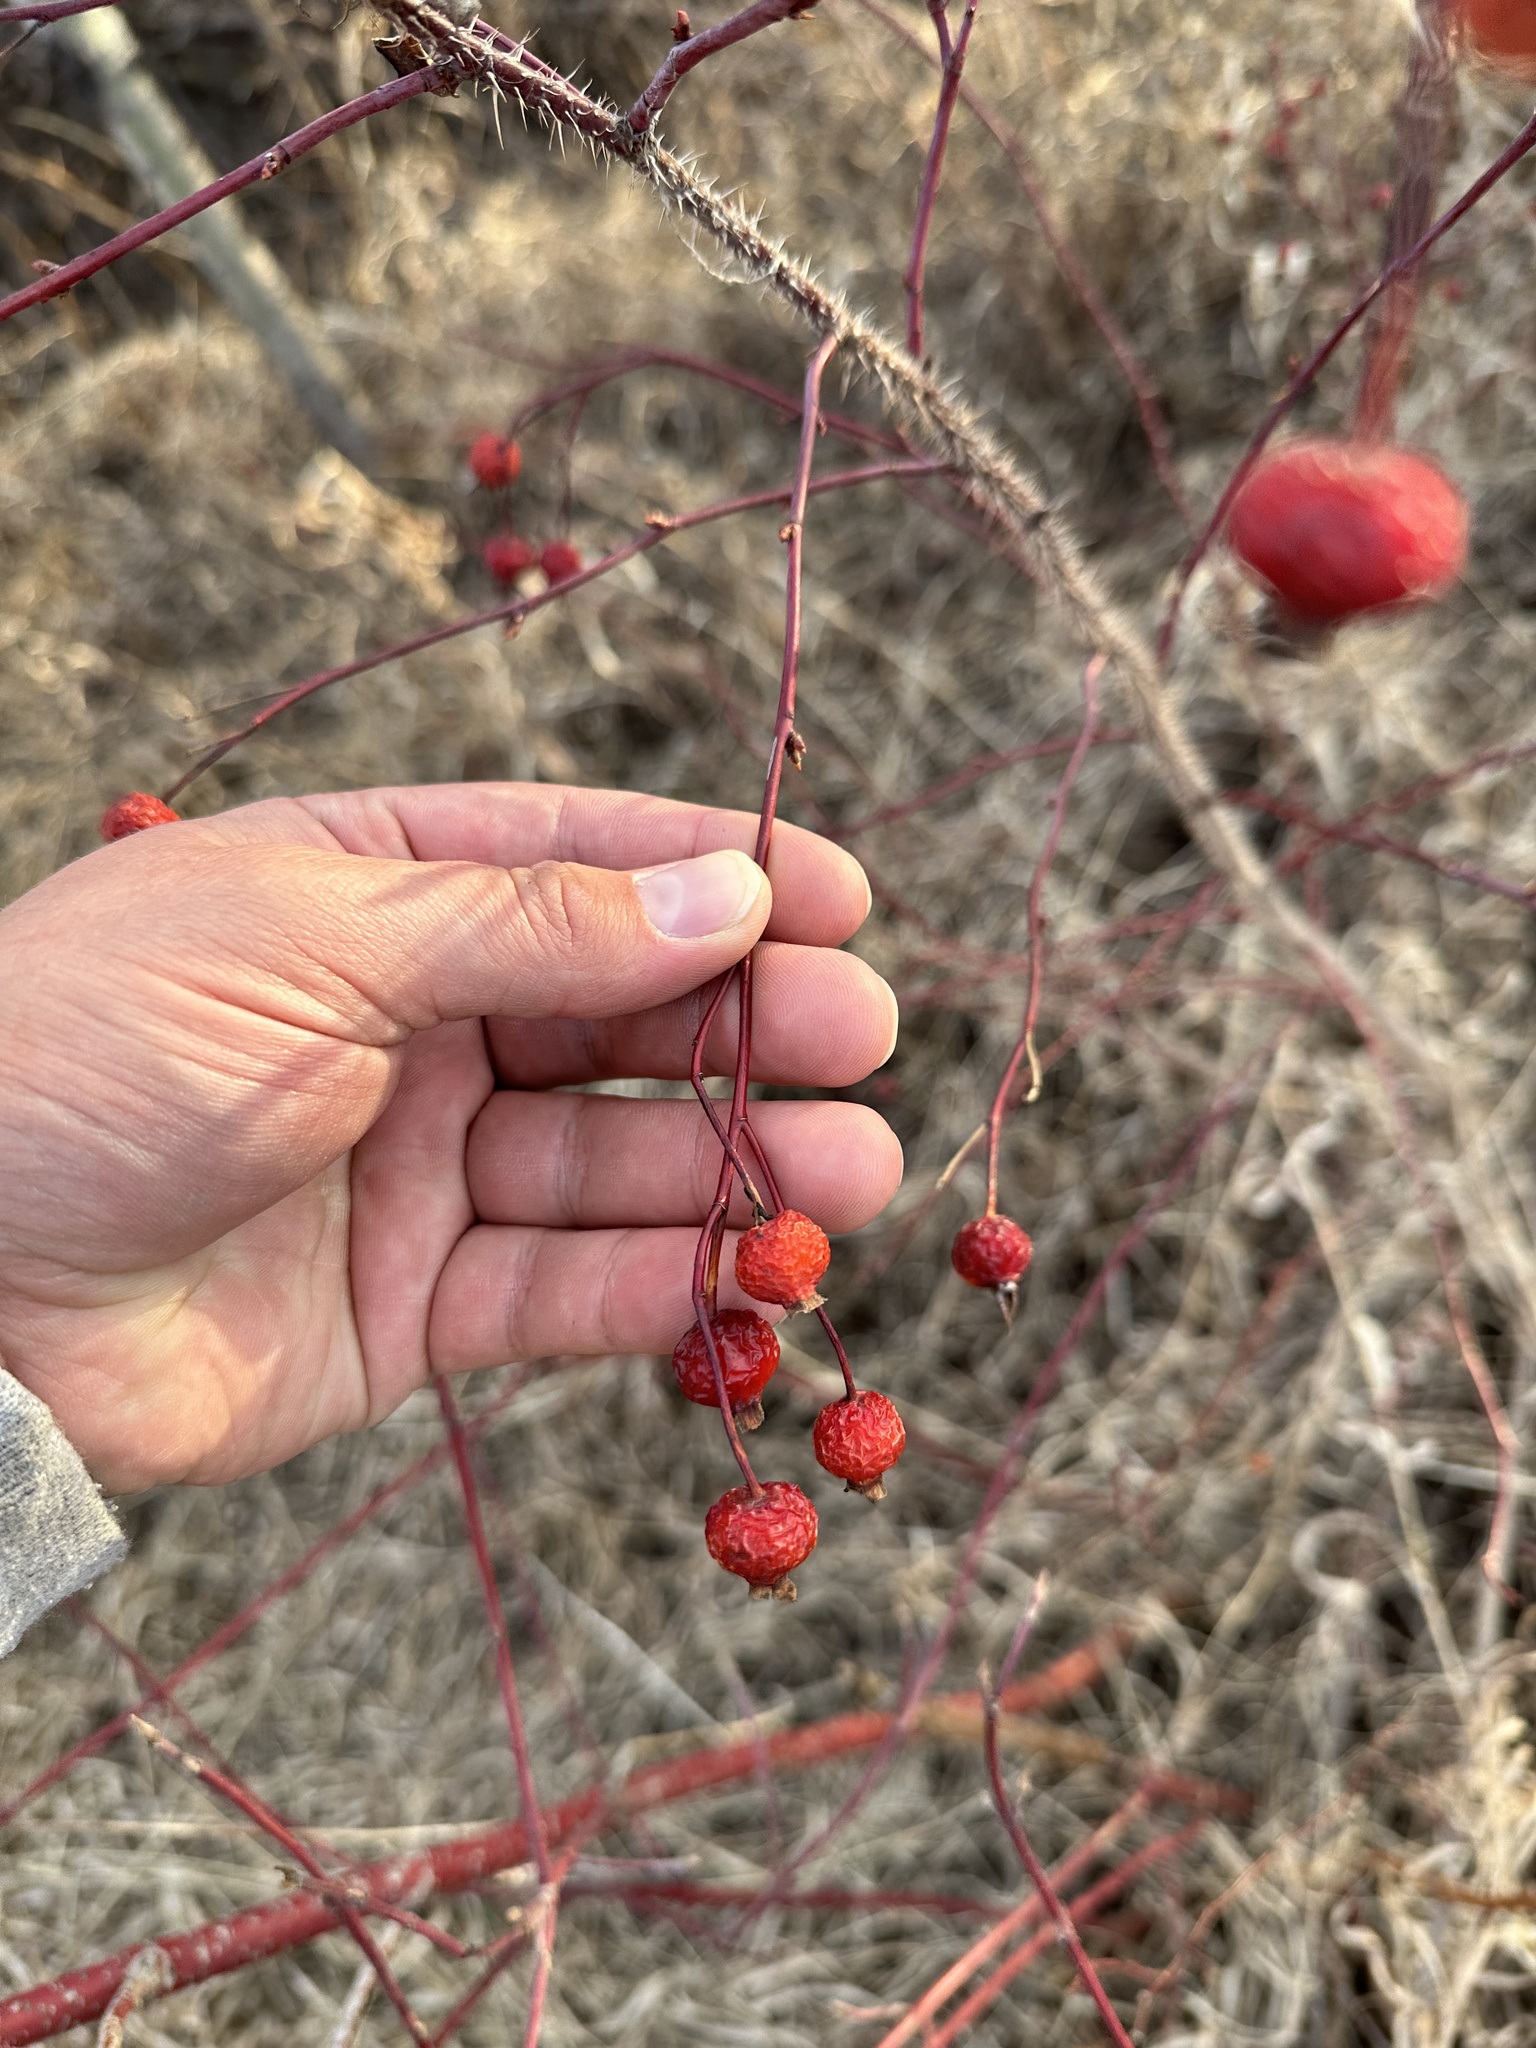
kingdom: Plantae
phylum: Tracheophyta
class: Magnoliopsida
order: Rosales
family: Rosaceae
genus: Rosa
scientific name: Rosa woodsii
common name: Woods's rose
